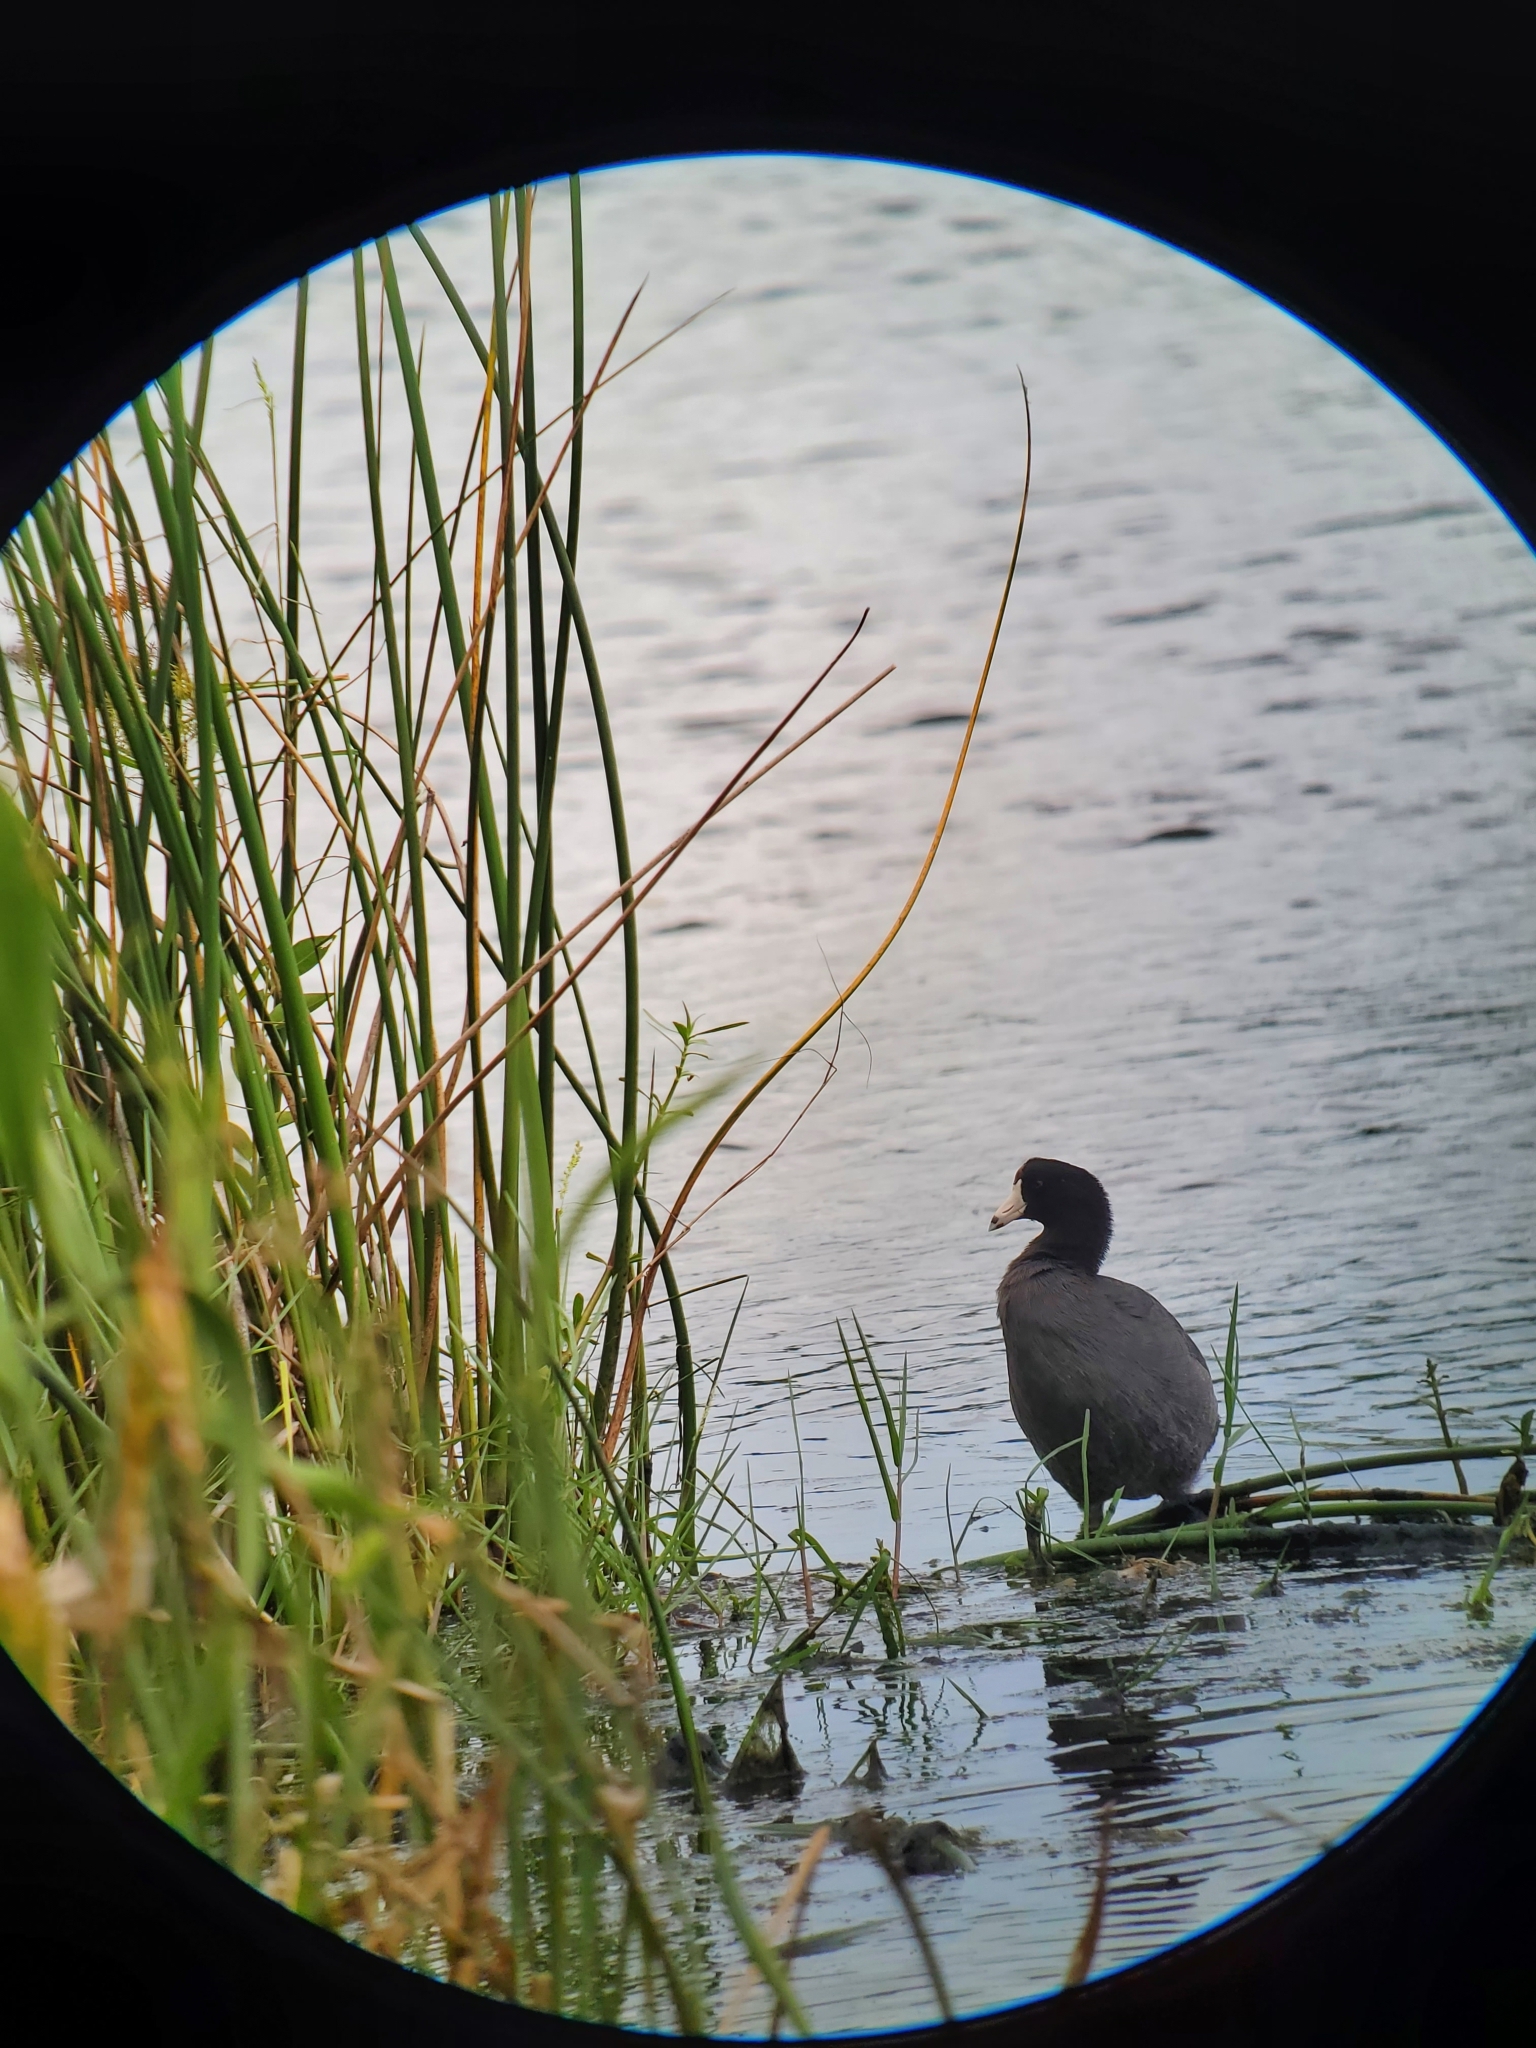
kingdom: Animalia
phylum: Chordata
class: Aves
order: Gruiformes
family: Rallidae
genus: Fulica
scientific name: Fulica americana
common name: American coot
